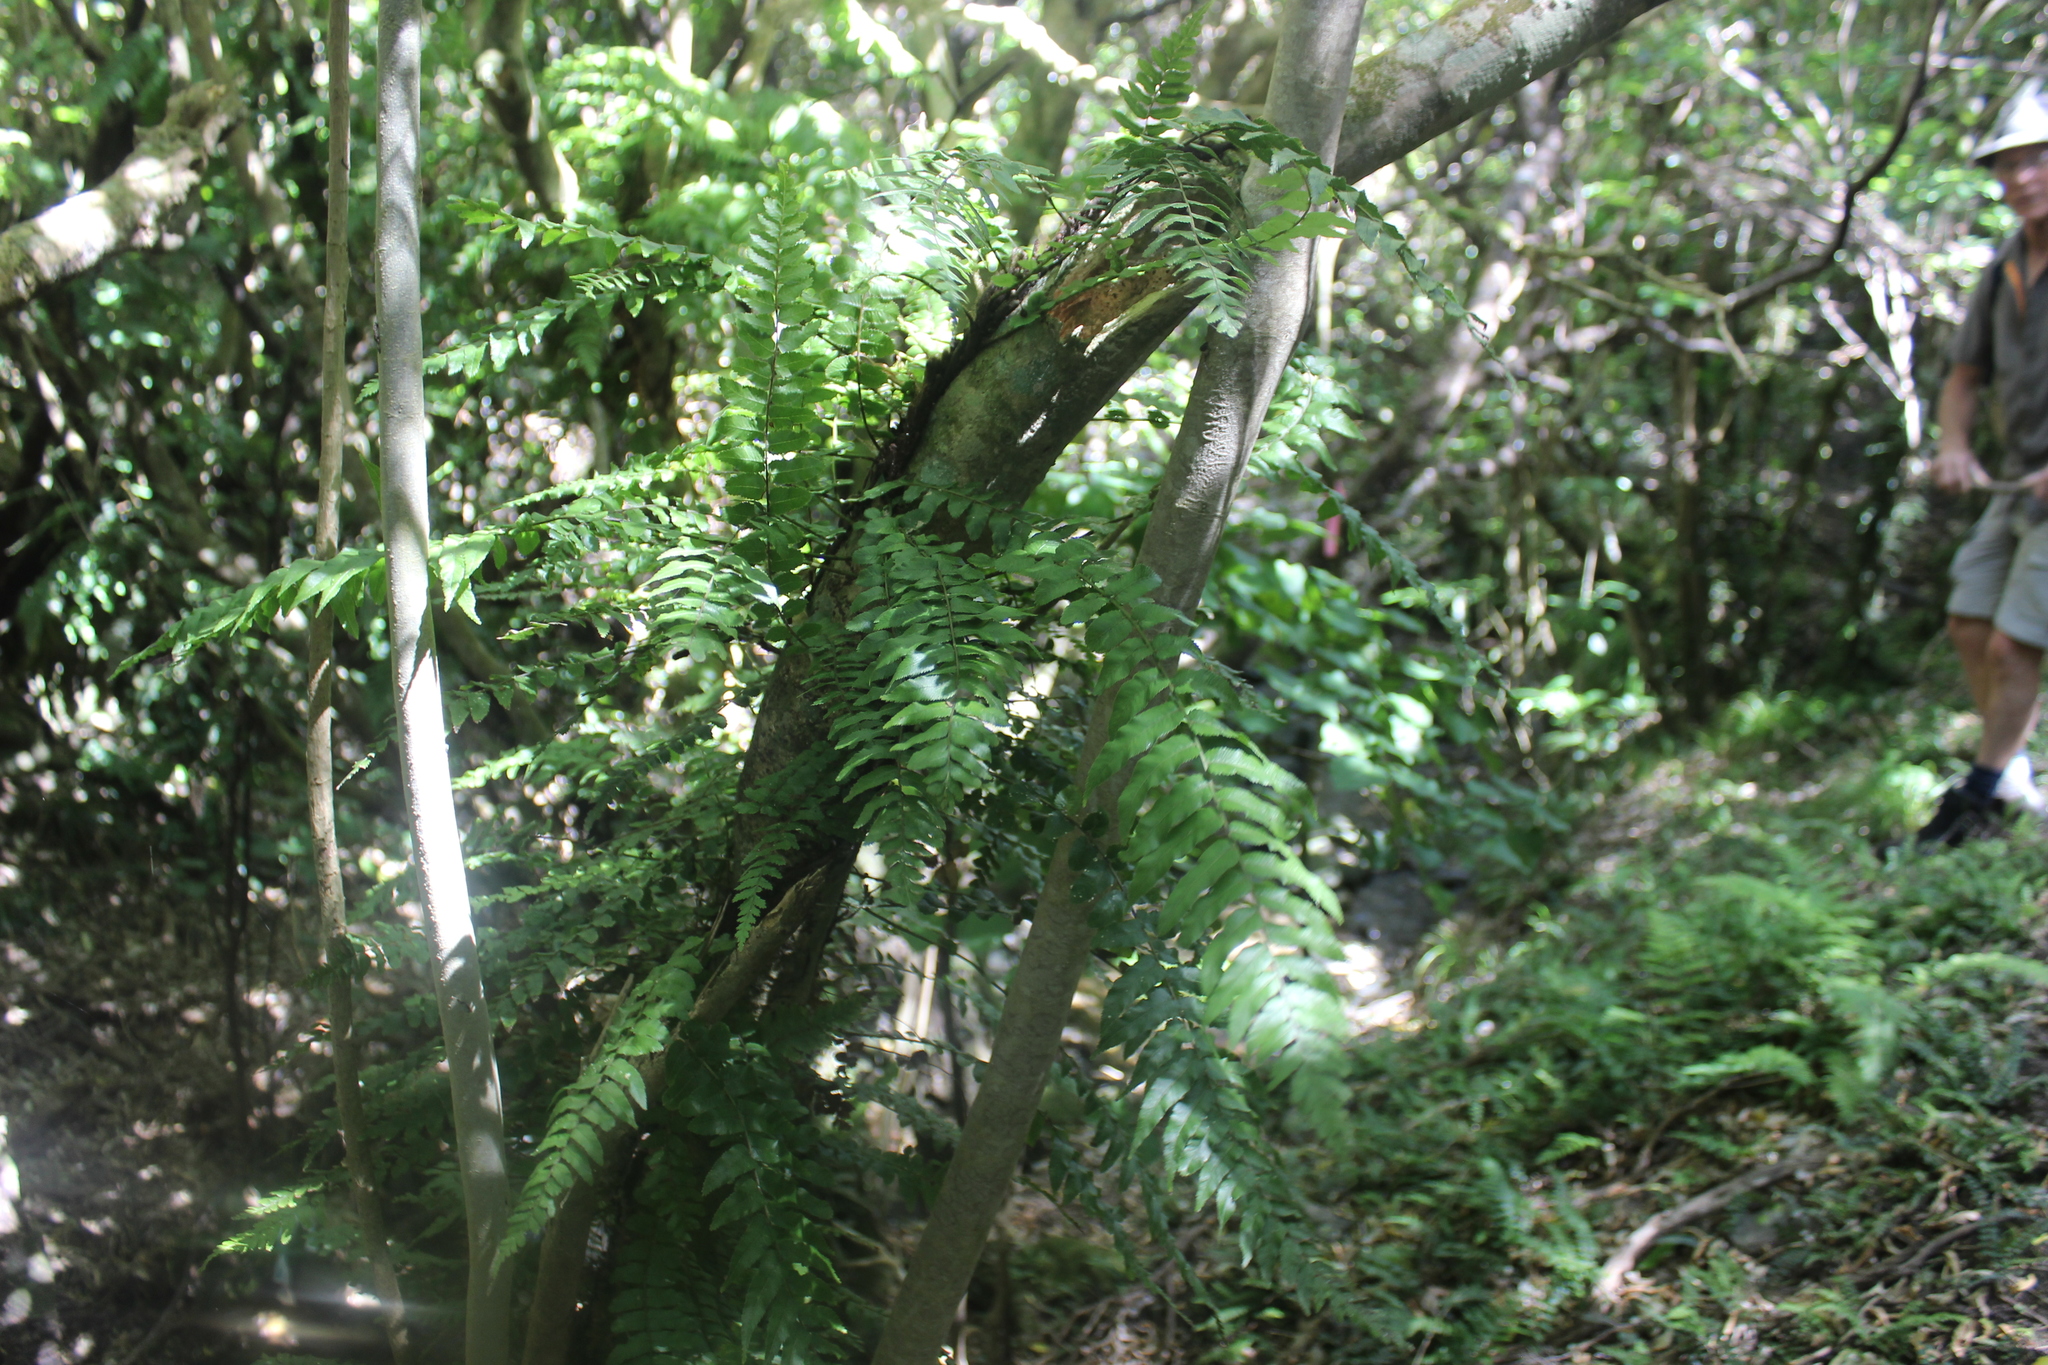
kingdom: Plantae
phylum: Tracheophyta
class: Polypodiopsida
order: Polypodiales
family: Blechnaceae
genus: Icarus
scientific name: Icarus filiformis
